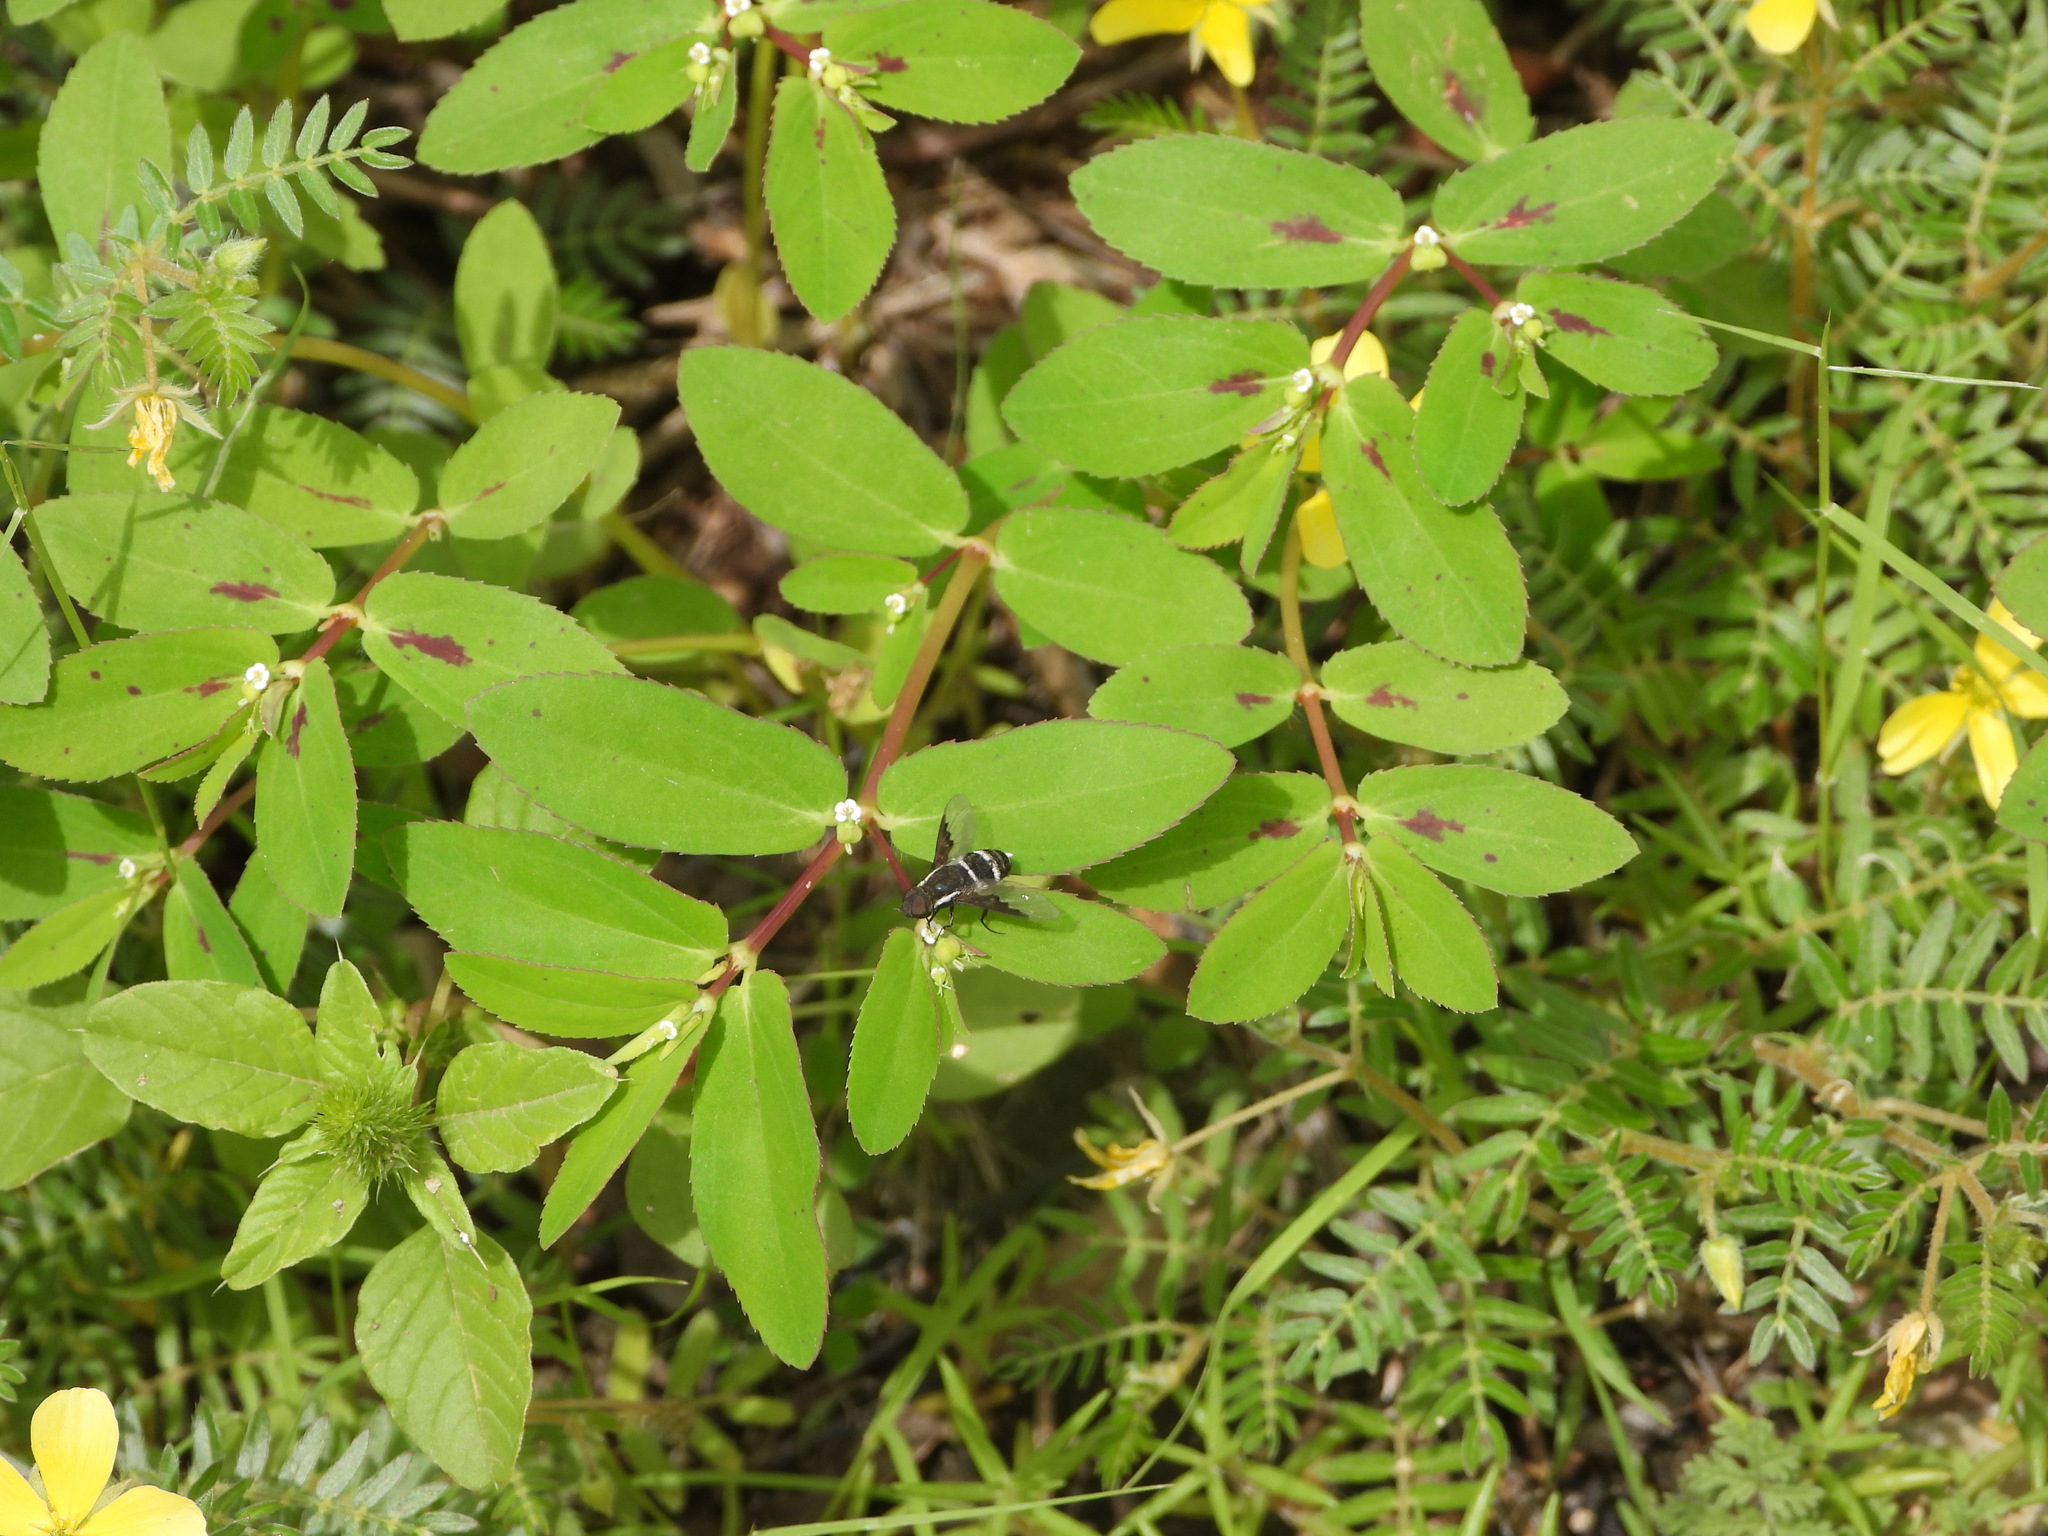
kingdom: Plantae
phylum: Tracheophyta
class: Magnoliopsida
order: Malpighiales
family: Euphorbiaceae
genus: Euphorbia
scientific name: Euphorbia hyssopifolia
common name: Hyssopleaf sandmat
